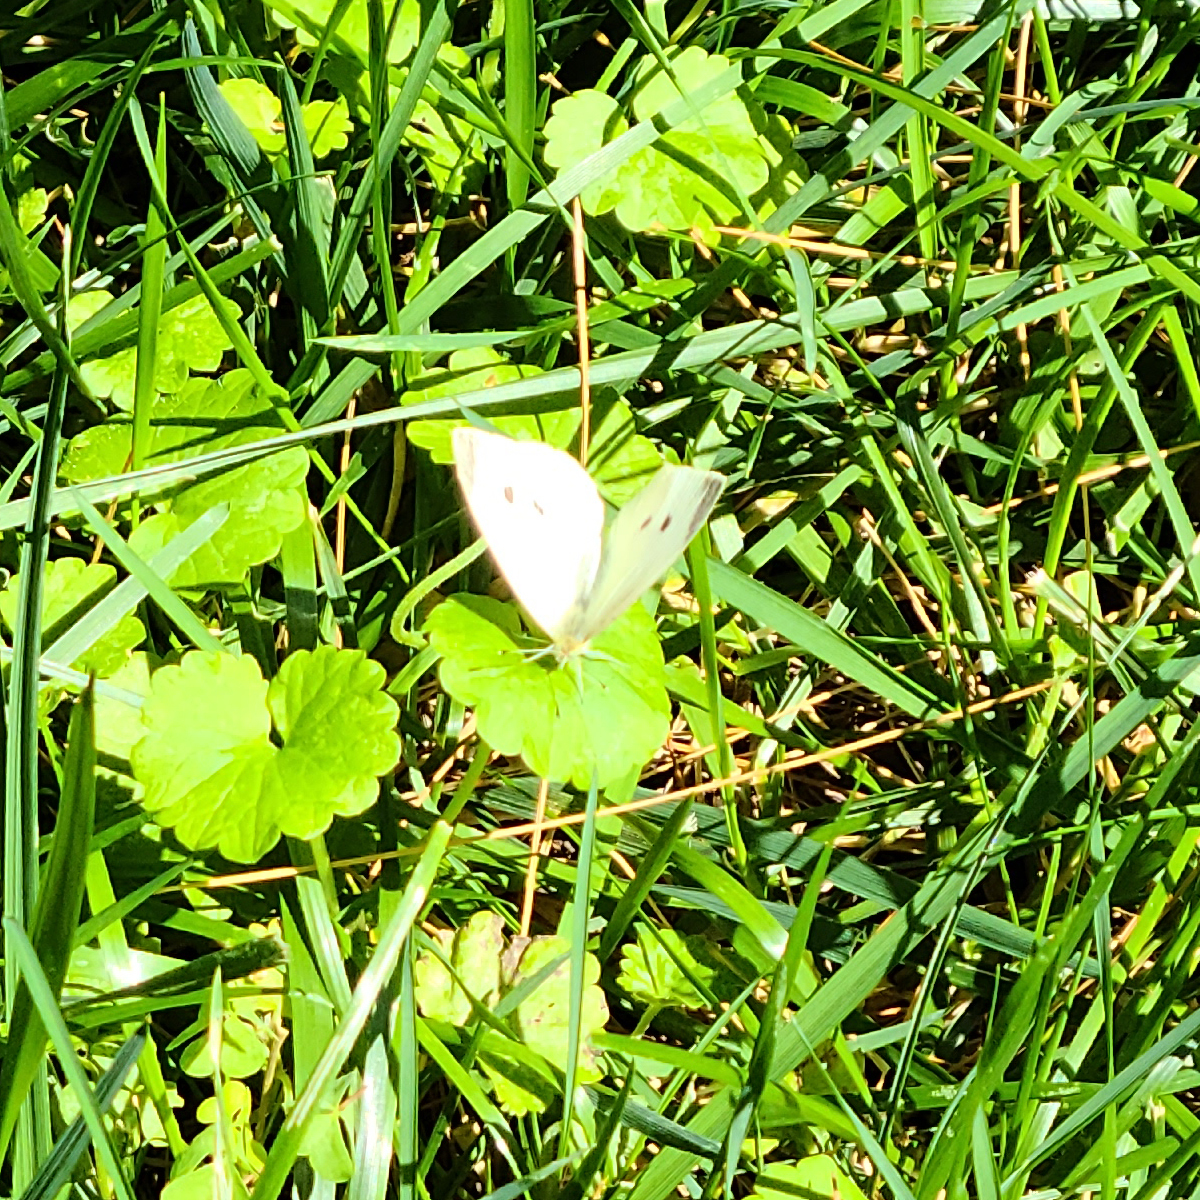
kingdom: Animalia
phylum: Arthropoda
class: Insecta
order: Lepidoptera
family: Pieridae
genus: Pieris
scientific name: Pieris rapae
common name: Small white
